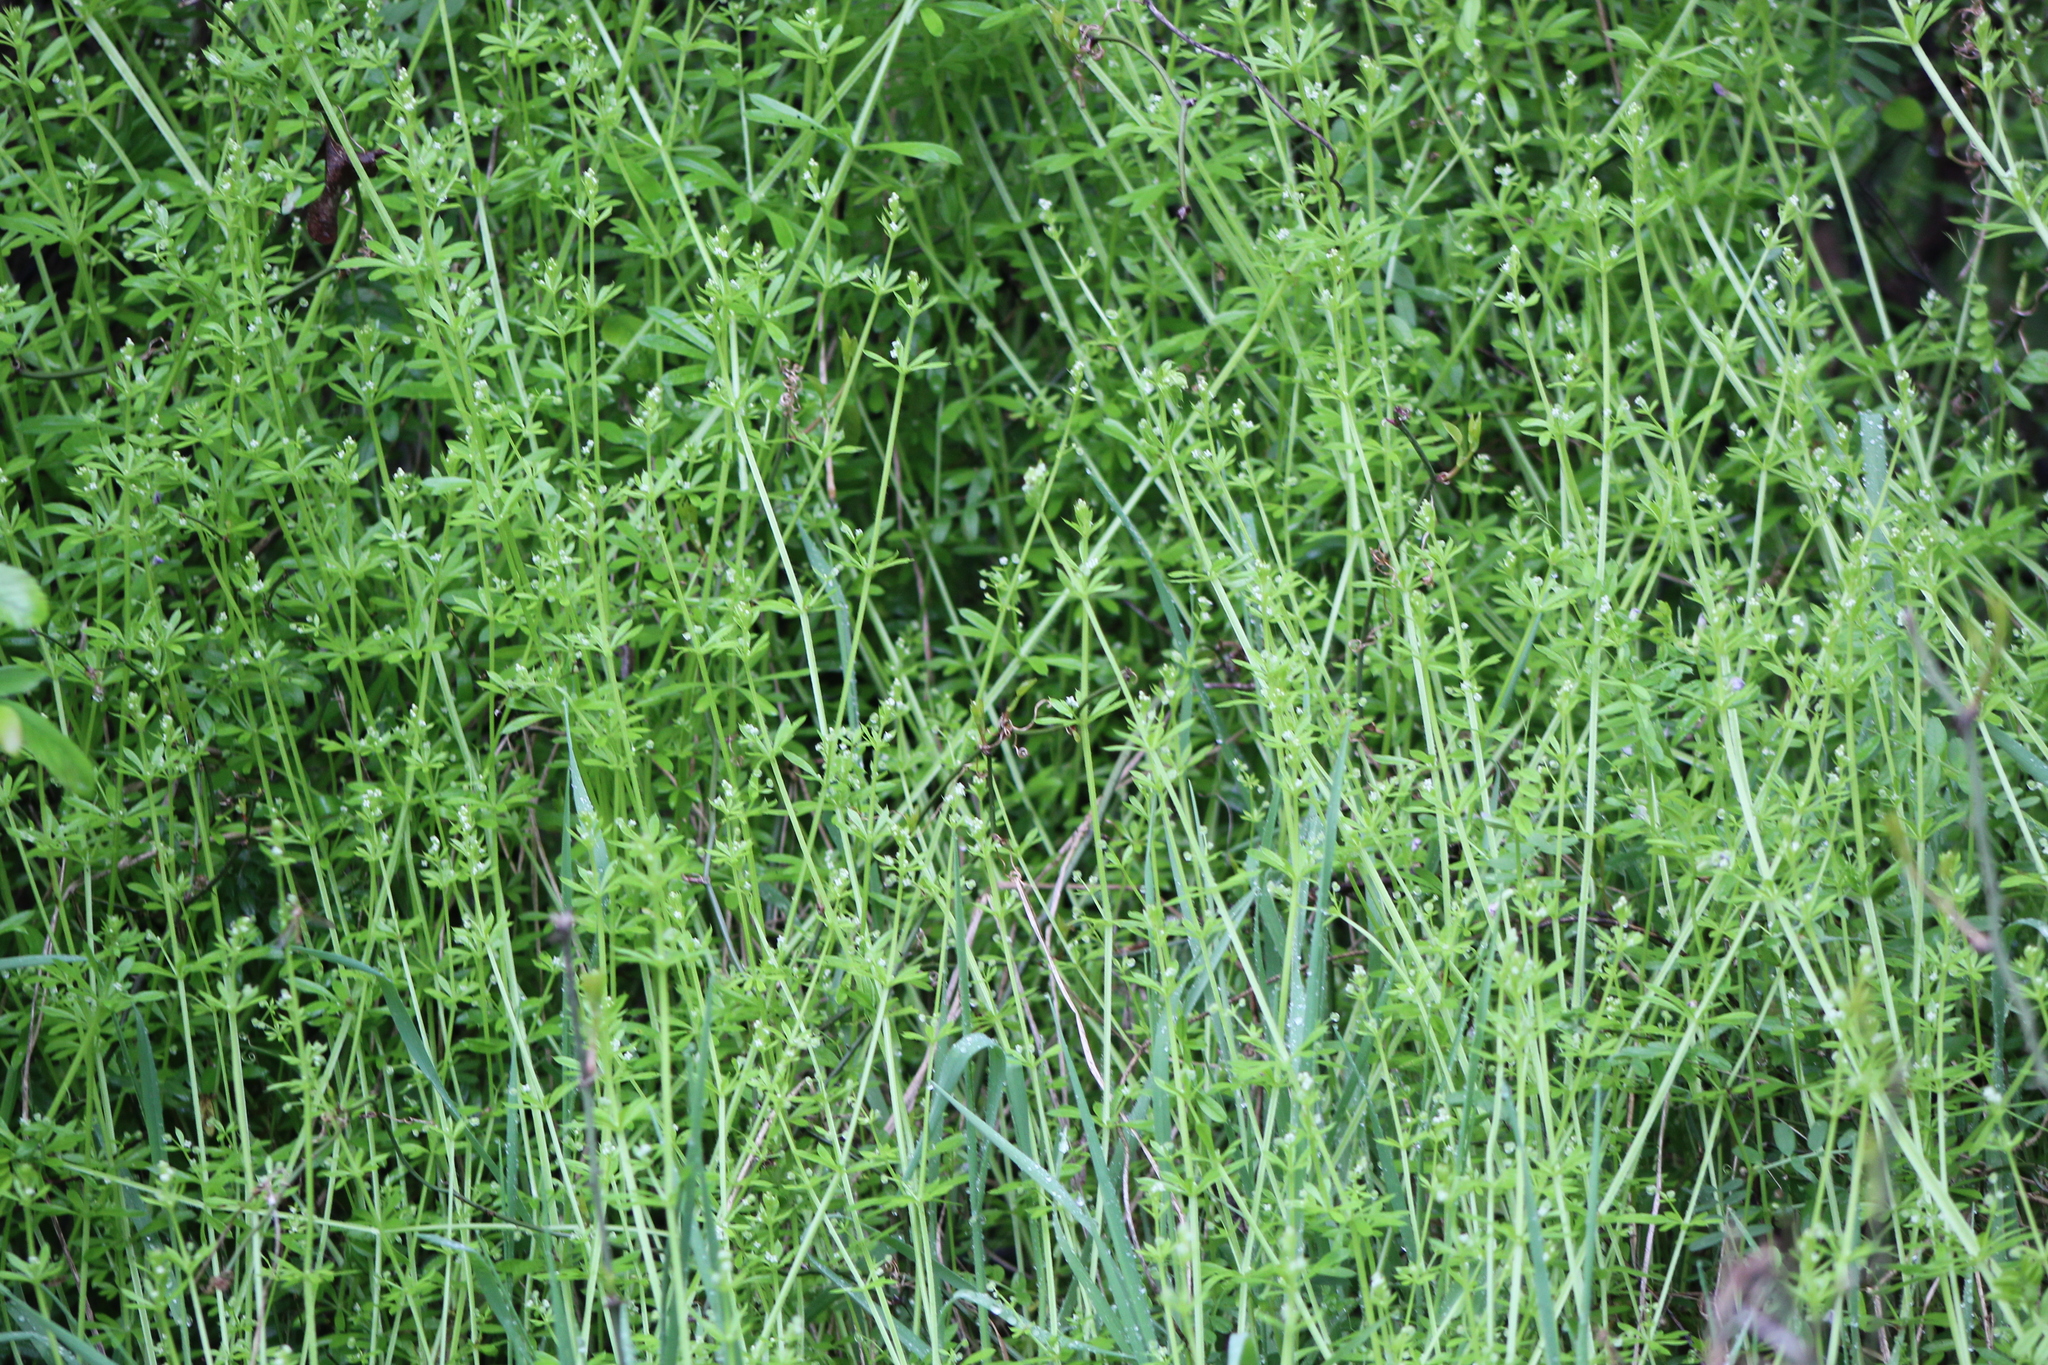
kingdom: Plantae
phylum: Tracheophyta
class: Magnoliopsida
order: Gentianales
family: Rubiaceae
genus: Galium
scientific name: Galium aparine
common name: Cleavers
